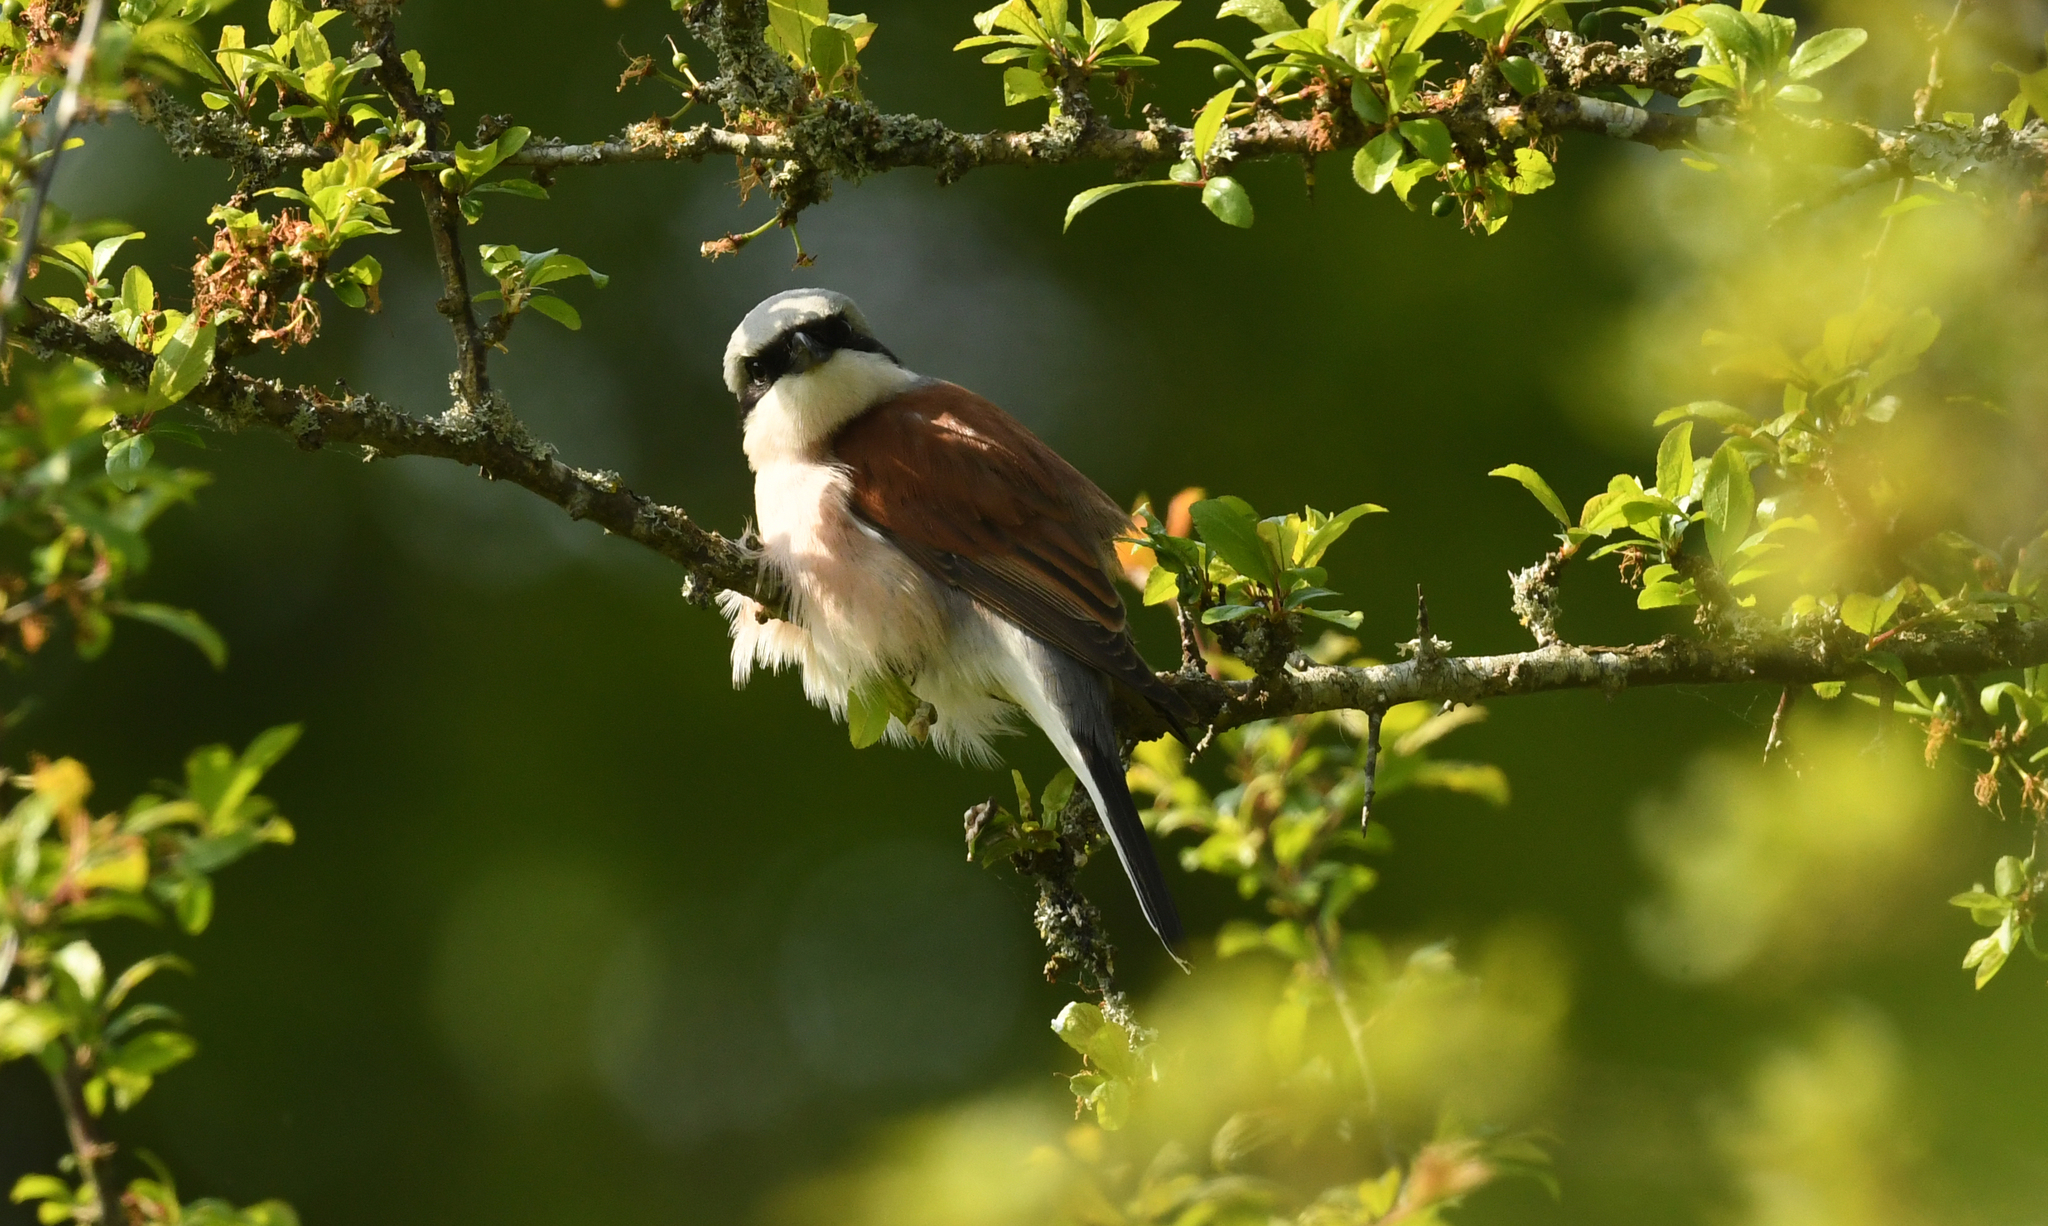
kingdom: Animalia
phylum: Chordata
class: Aves
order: Passeriformes
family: Laniidae
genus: Lanius
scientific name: Lanius collurio
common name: Red-backed shrike
